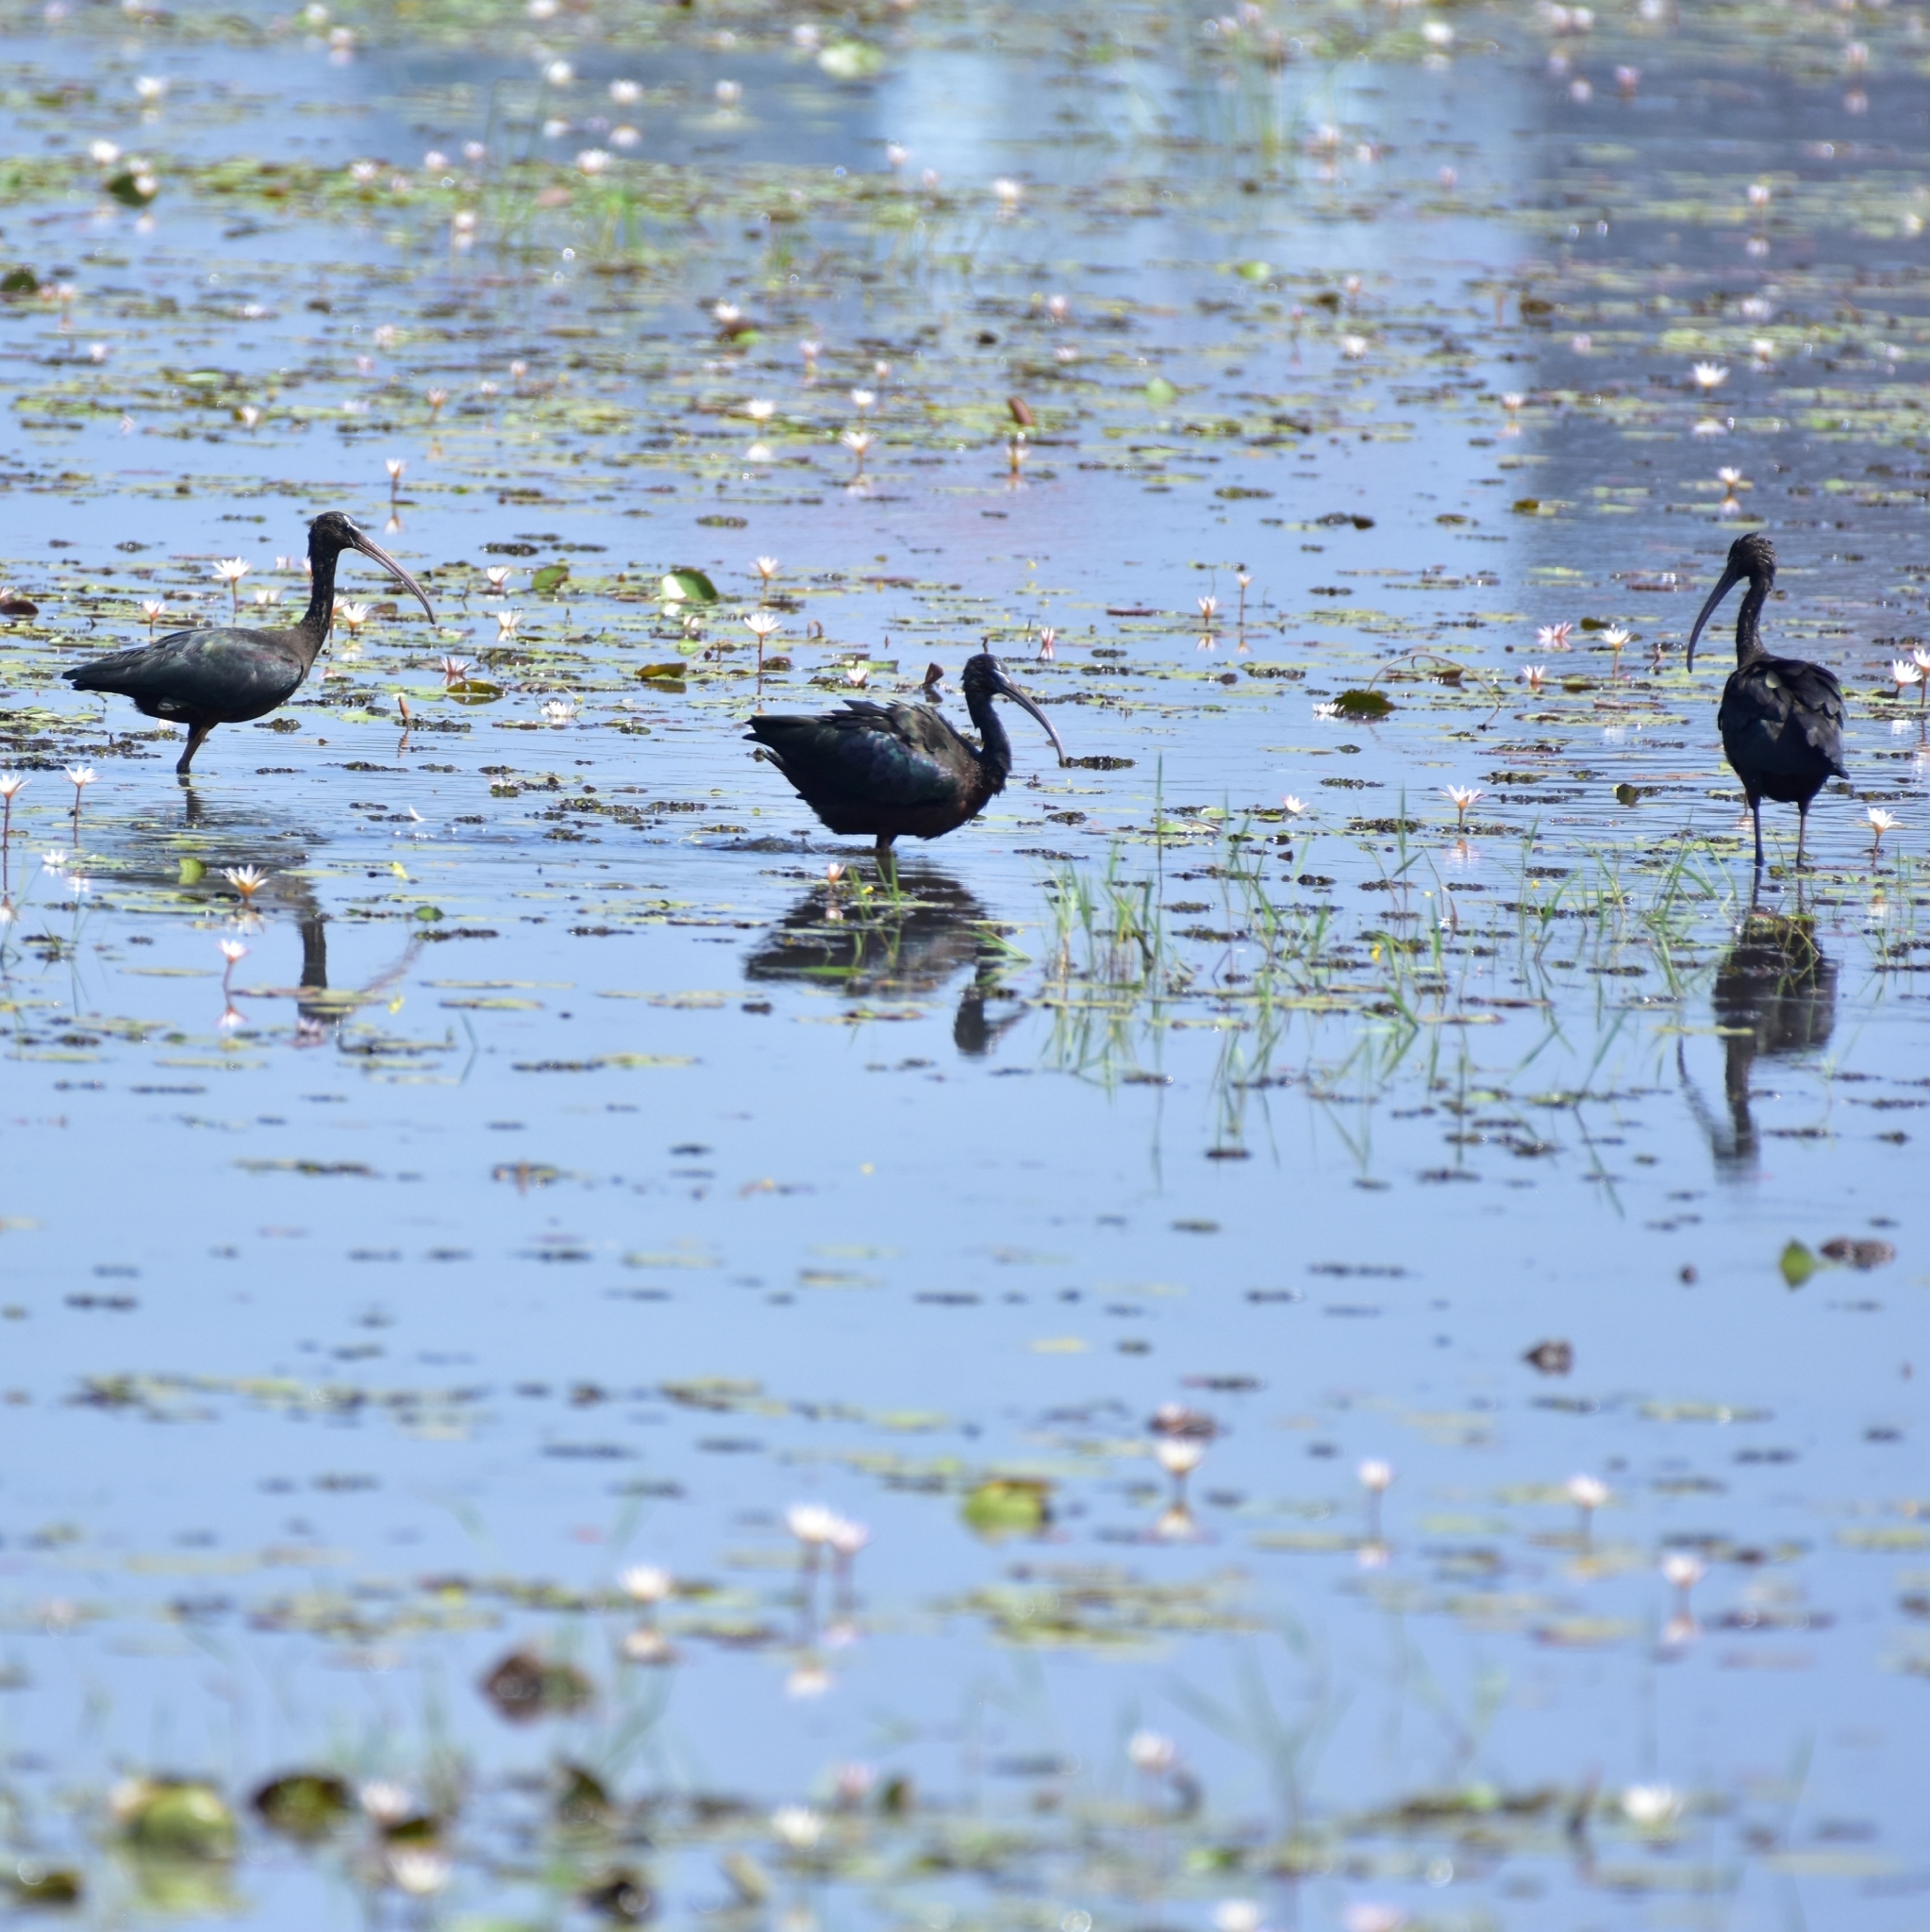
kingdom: Animalia
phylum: Chordata
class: Aves
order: Pelecaniformes
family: Threskiornithidae
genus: Plegadis
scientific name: Plegadis falcinellus
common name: Glossy ibis
